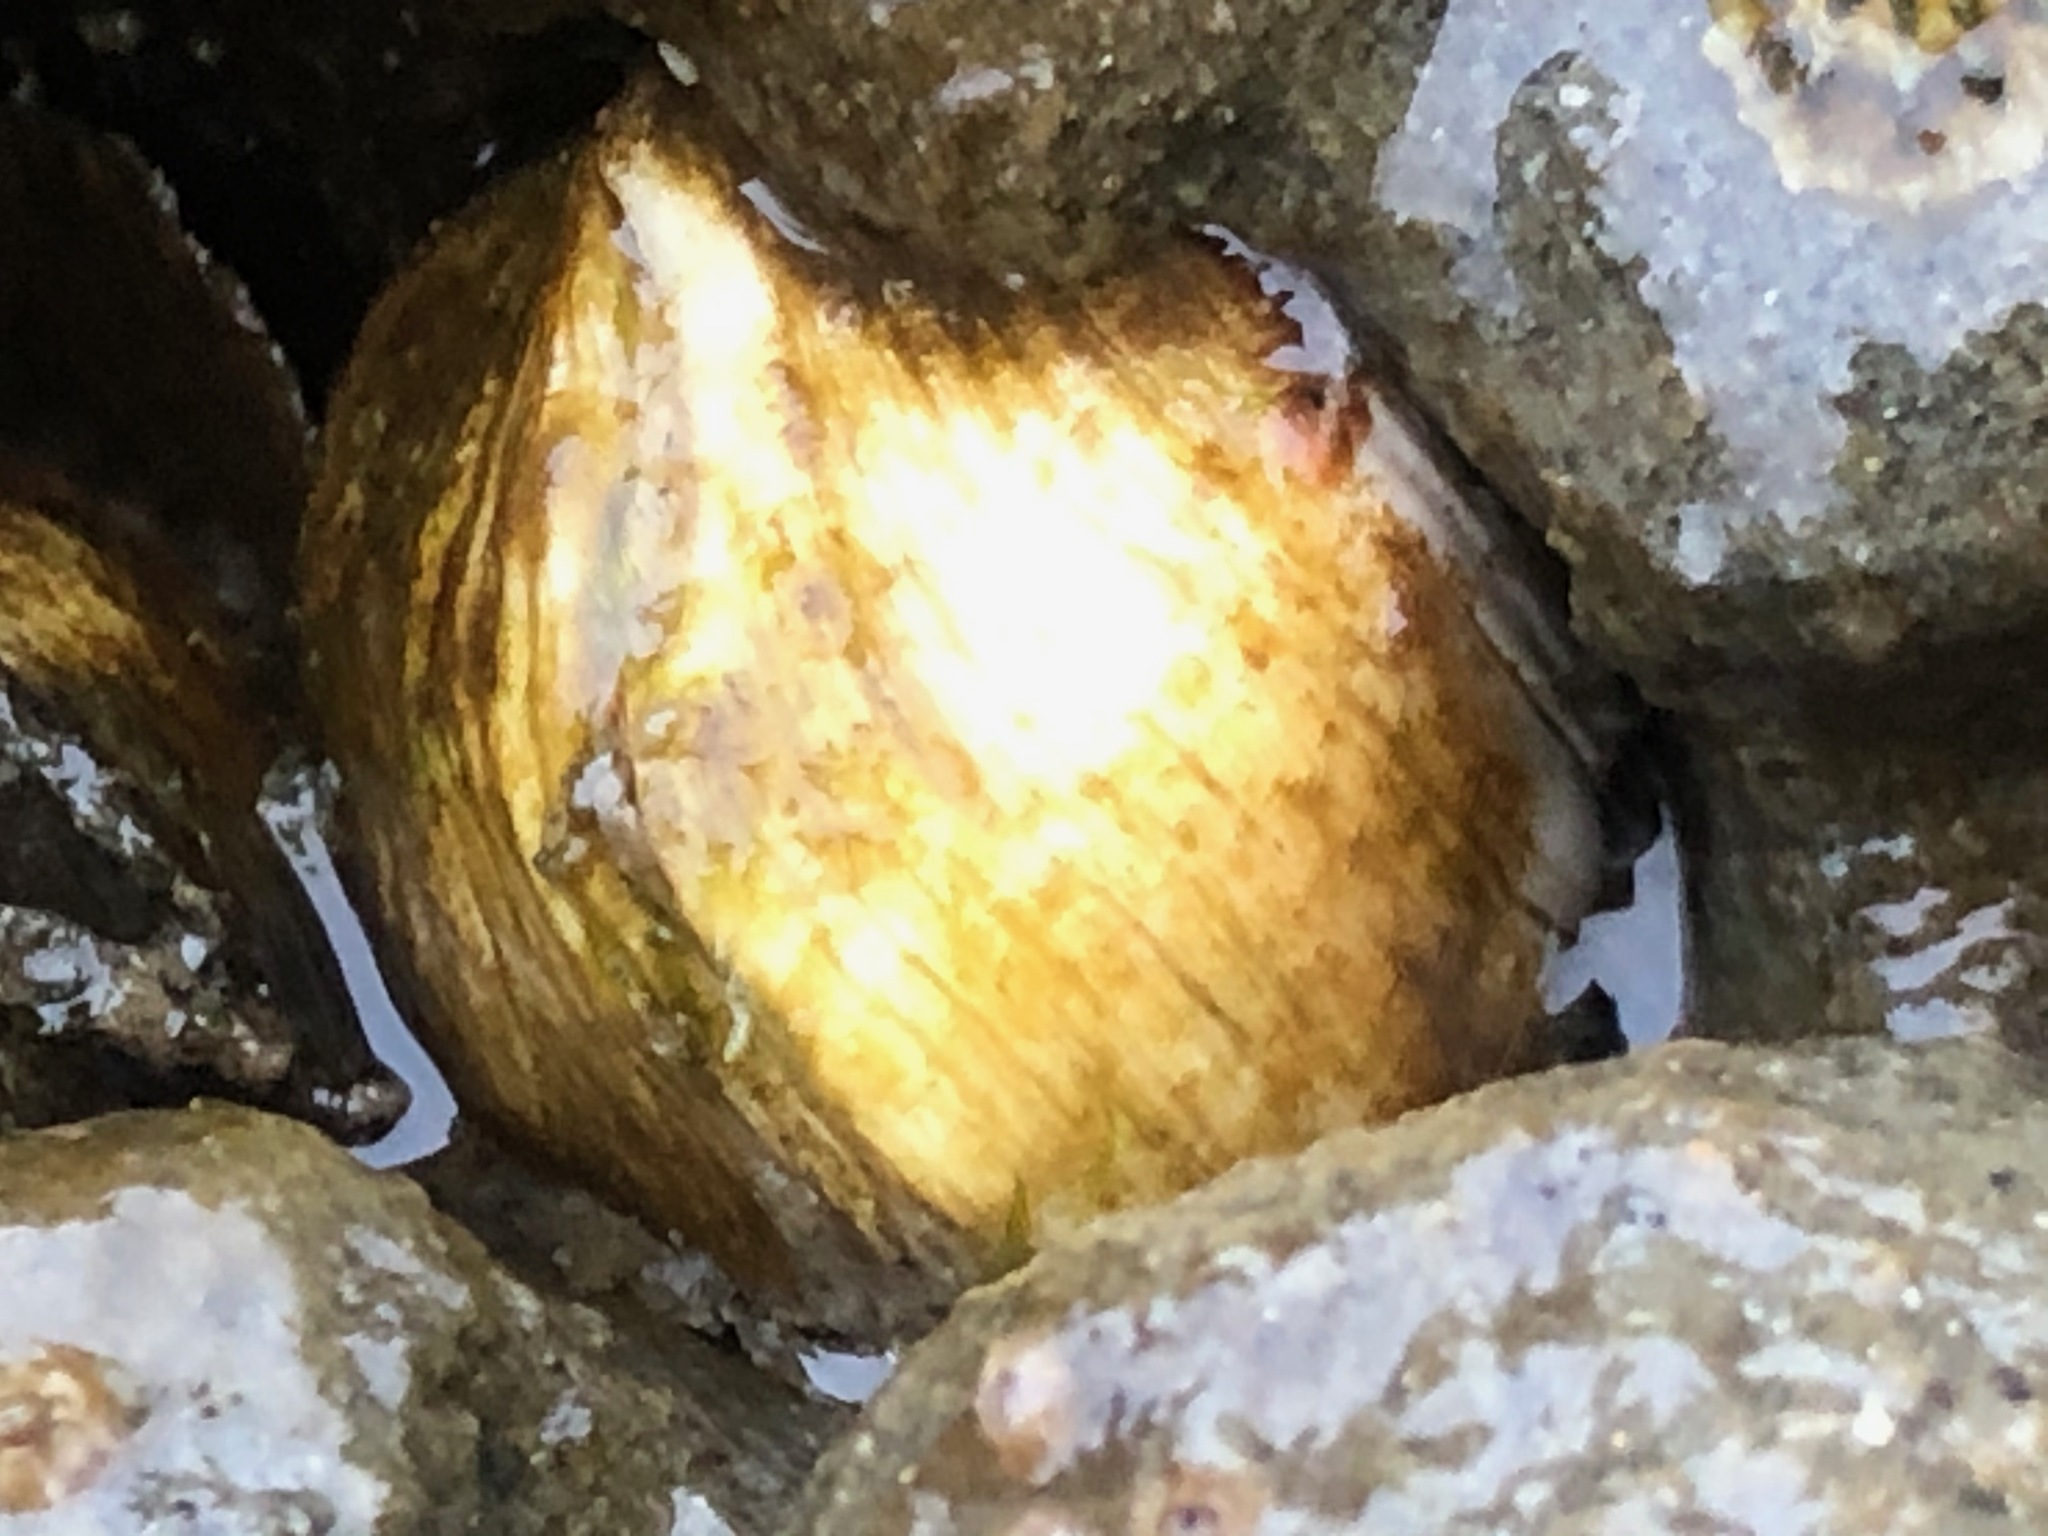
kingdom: Animalia
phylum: Mollusca
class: Bivalvia
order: Venerida
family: Veneridae
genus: Petricola
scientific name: Petricola carditoides
